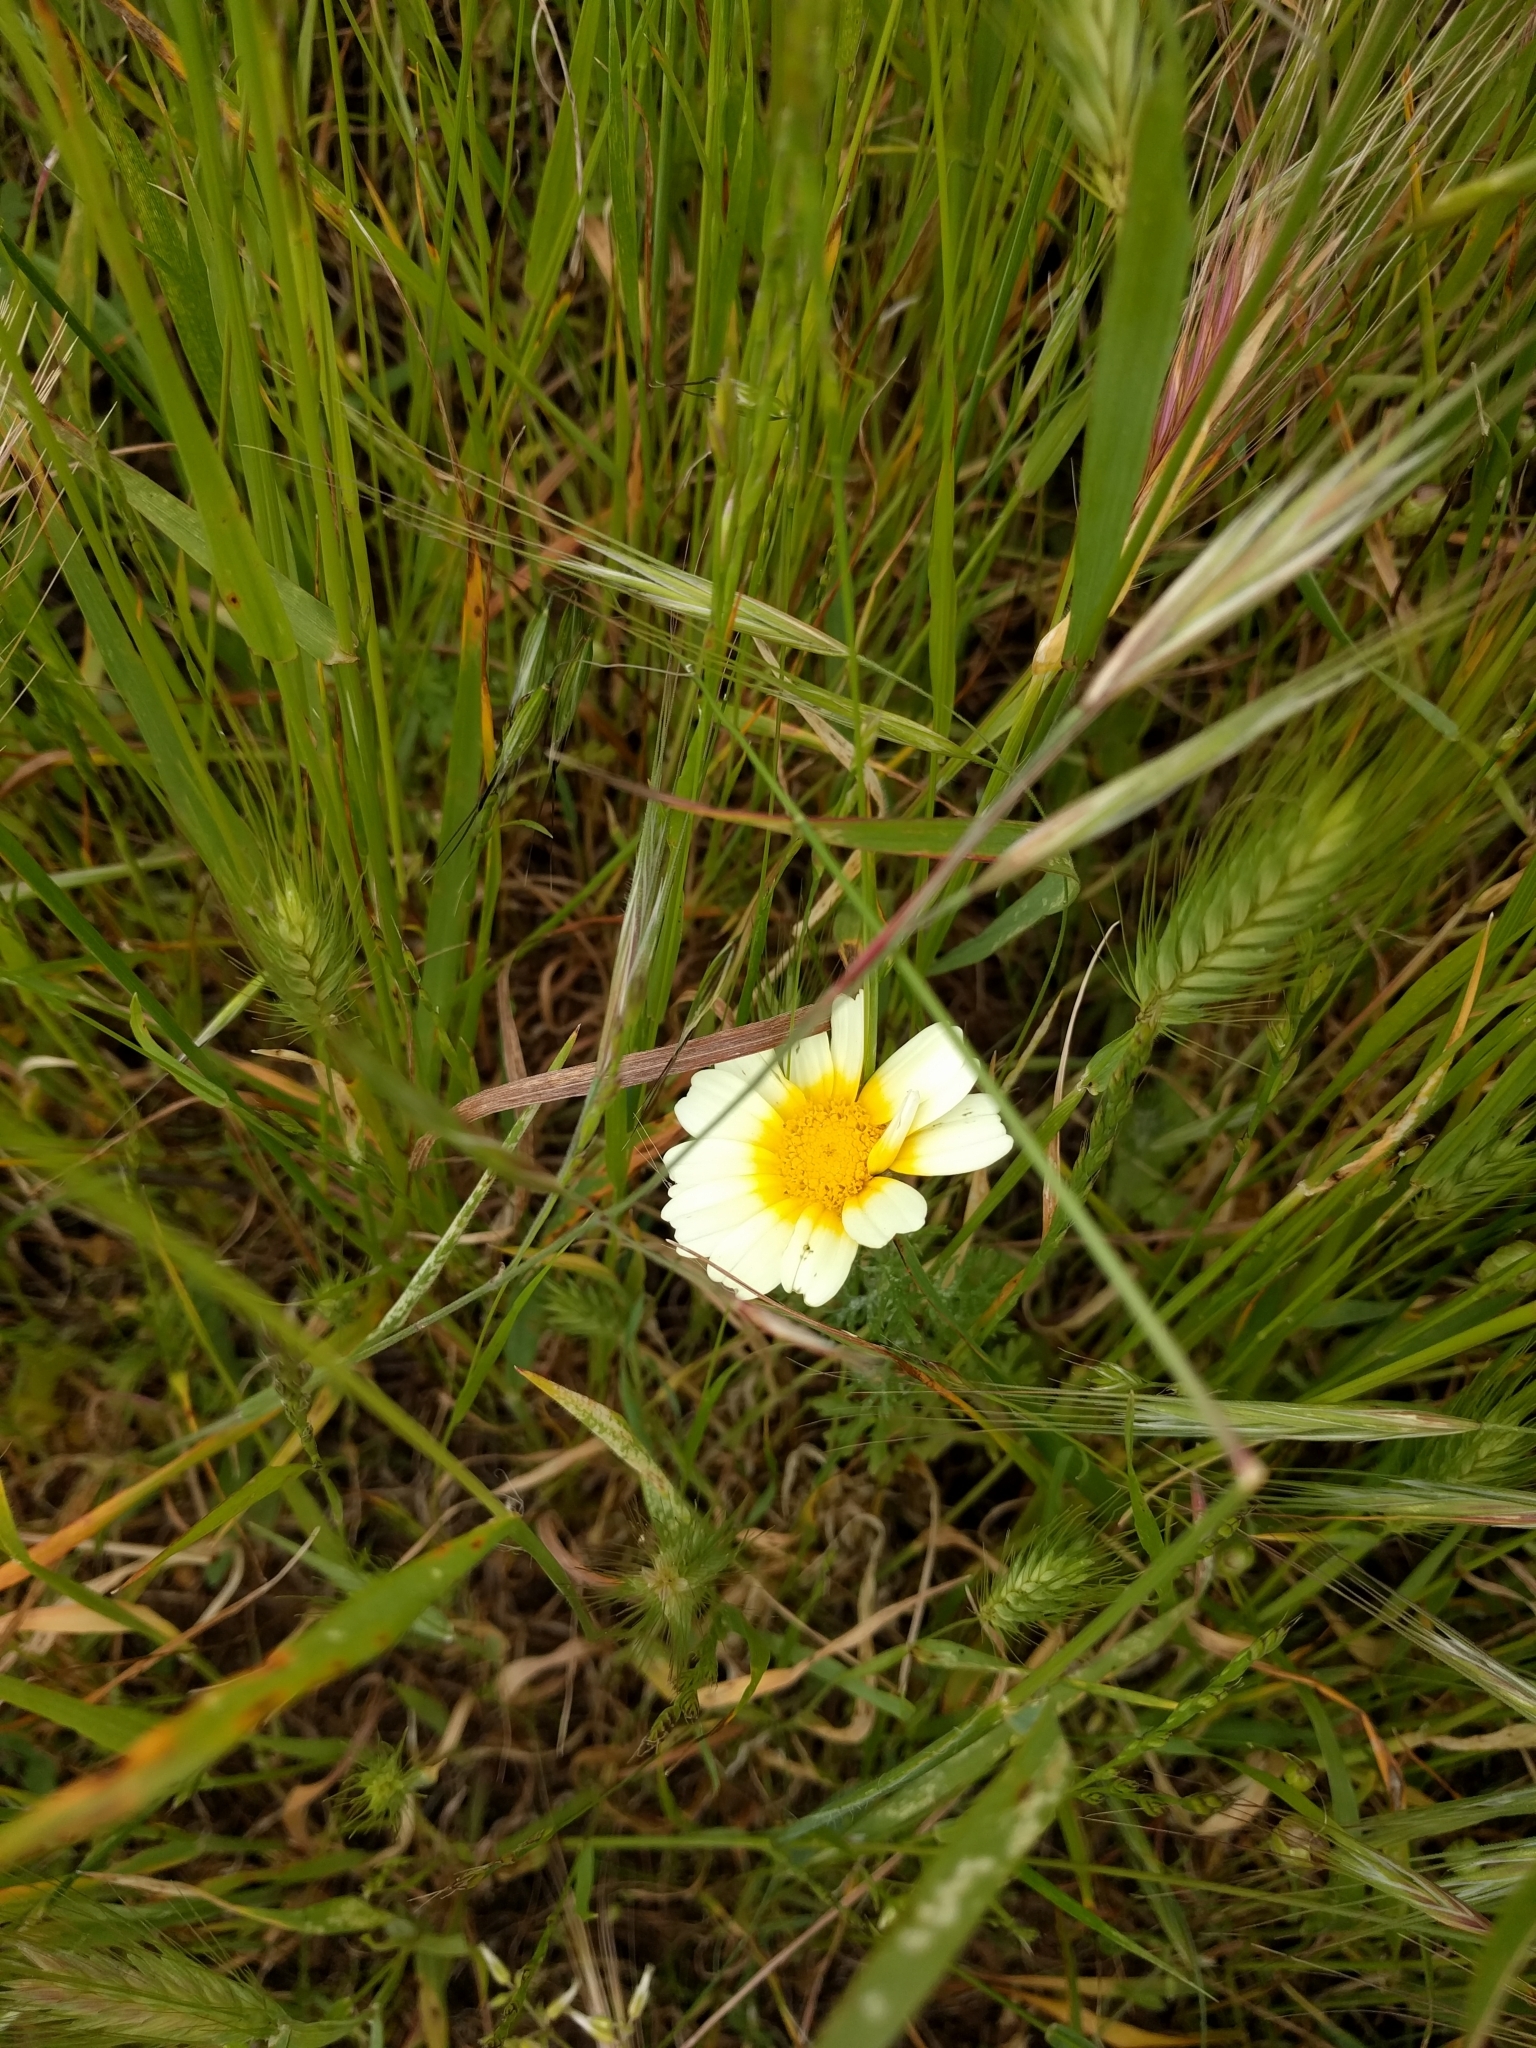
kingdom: Plantae
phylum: Tracheophyta
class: Magnoliopsida
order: Asterales
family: Asteraceae
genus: Glebionis
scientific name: Glebionis coronaria
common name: Crowndaisy
